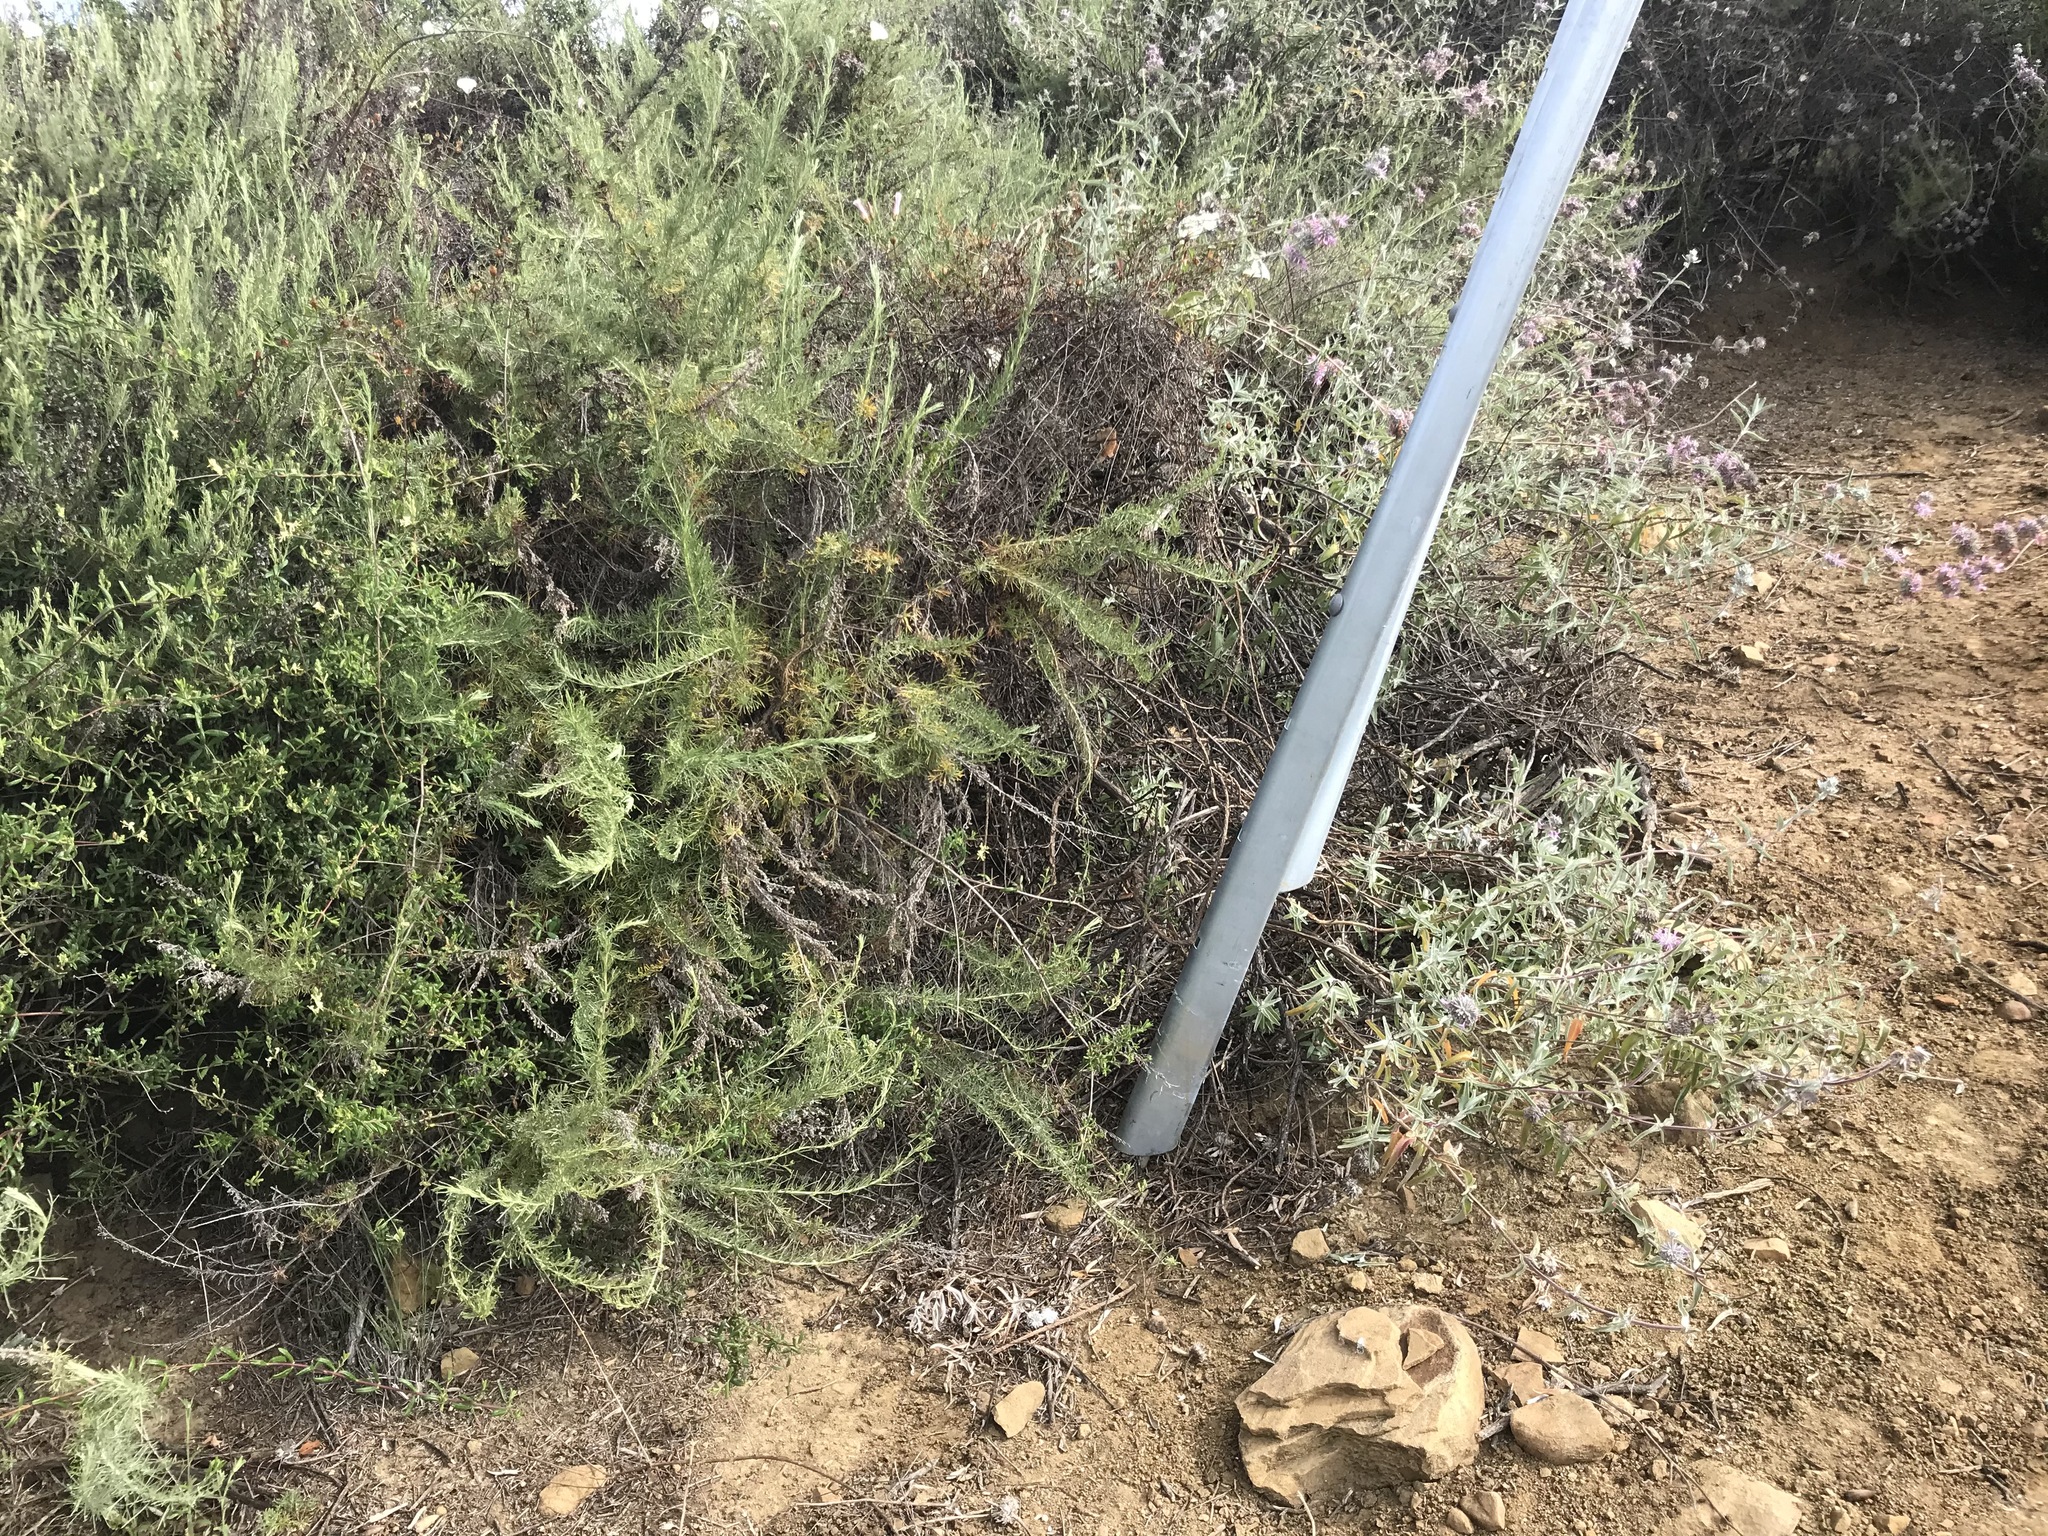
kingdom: Plantae
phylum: Tracheophyta
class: Magnoliopsida
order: Lamiales
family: Lamiaceae
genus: Salvia
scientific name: Salvia leucophylla
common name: Purple sage
